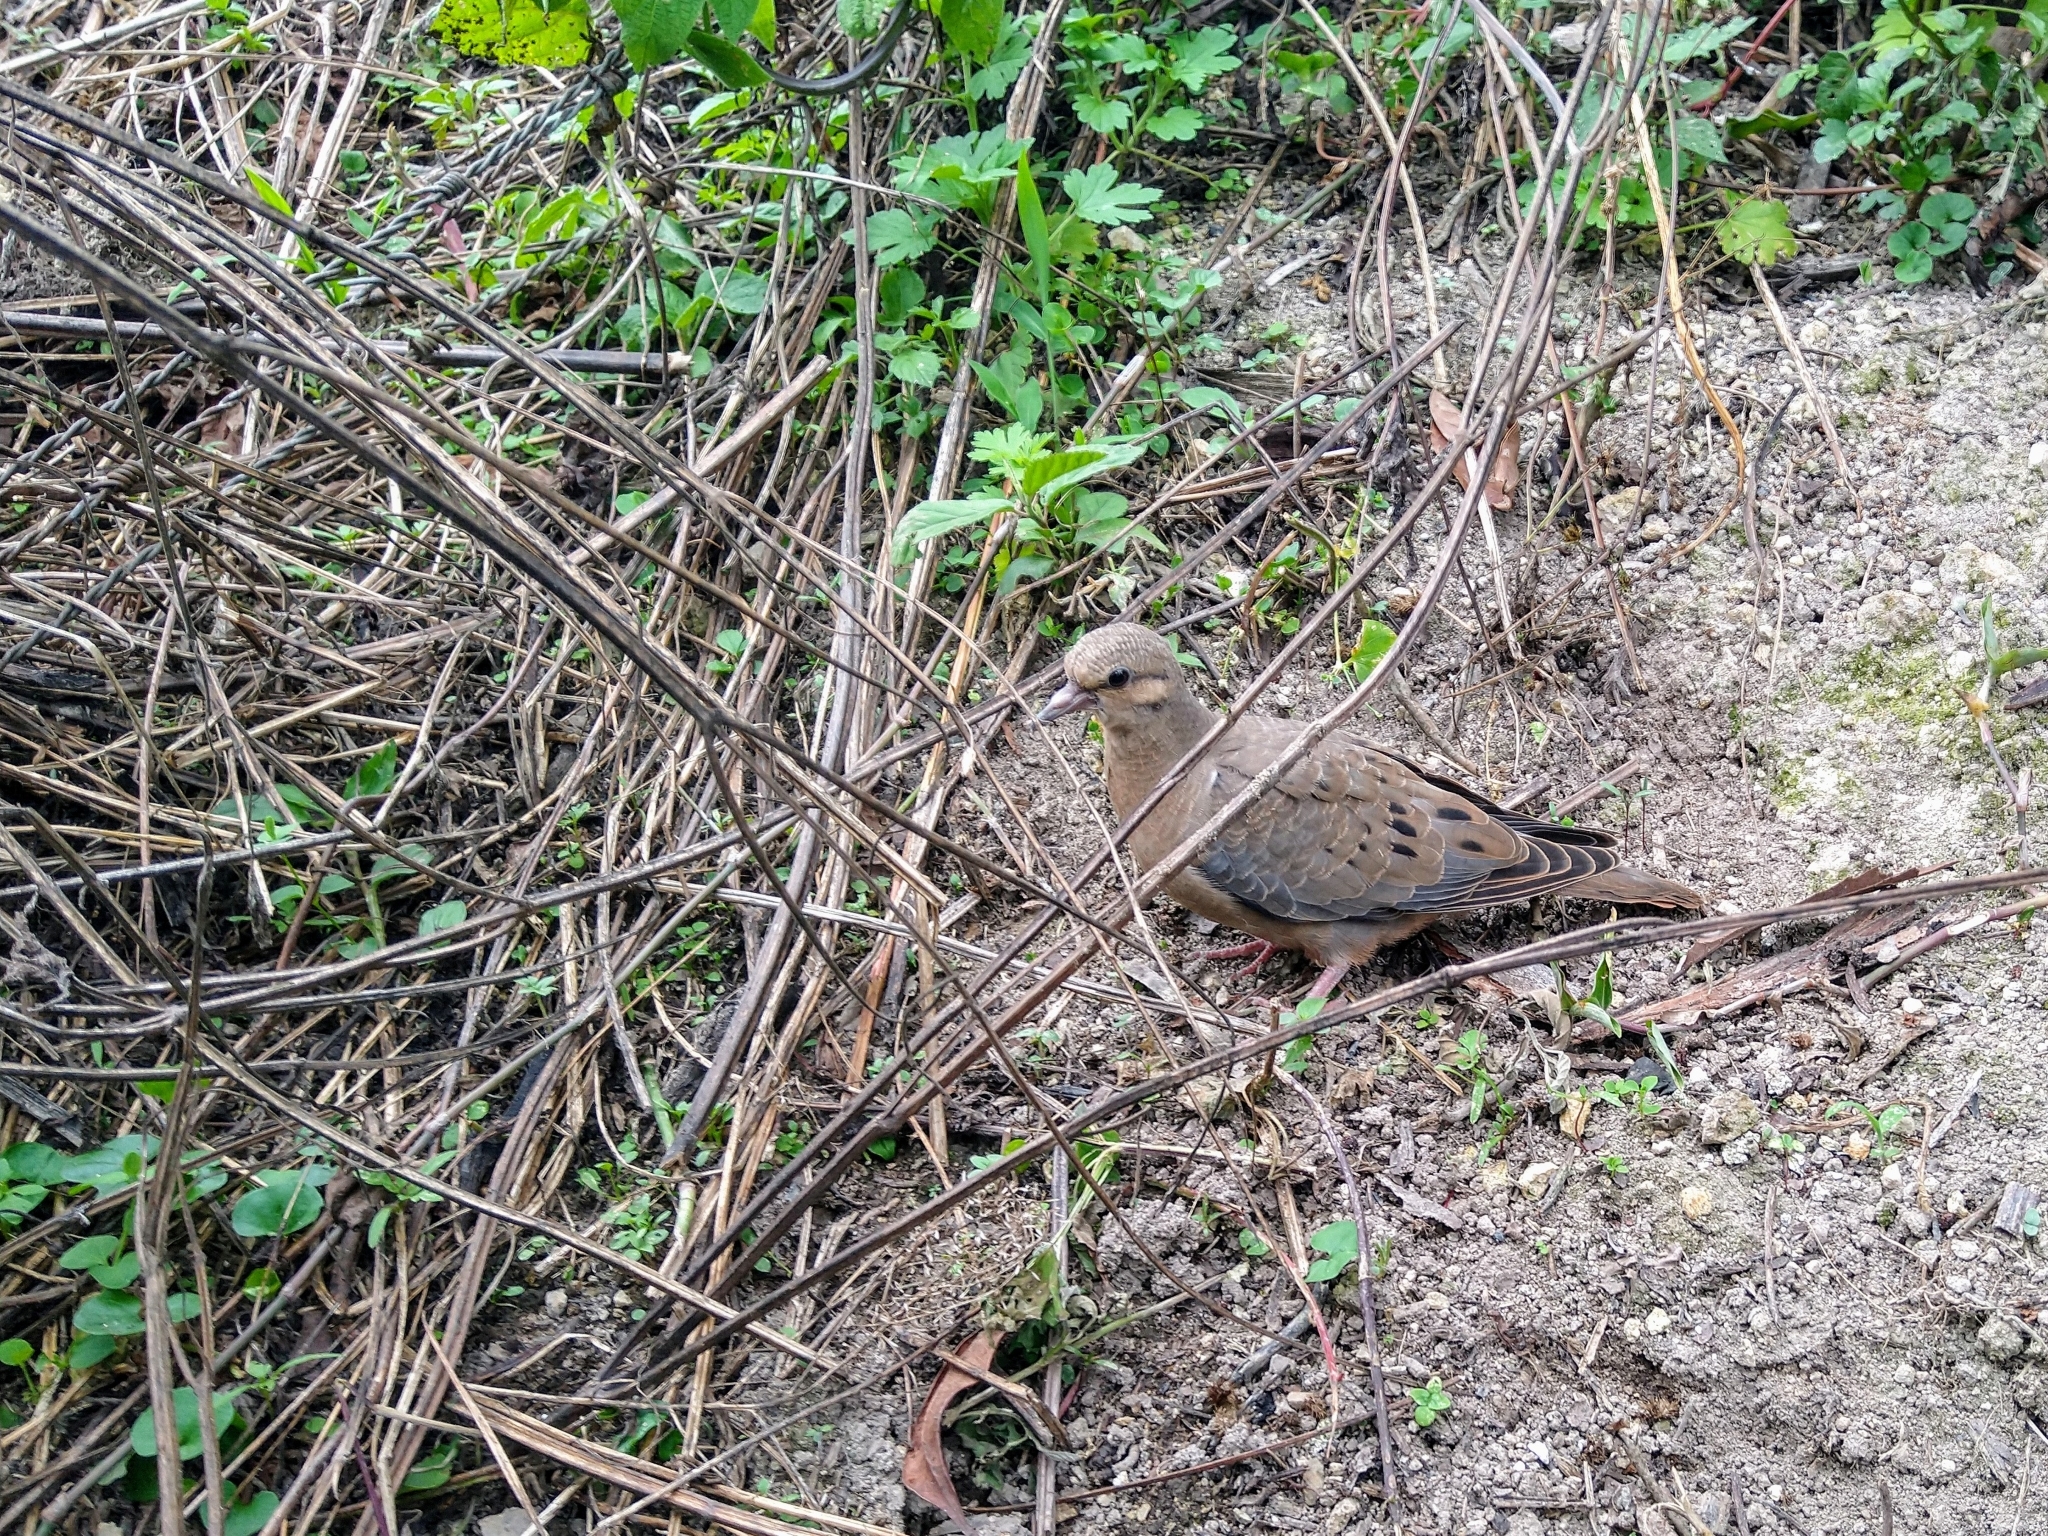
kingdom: Animalia
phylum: Chordata
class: Aves
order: Columbiformes
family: Columbidae
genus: Zenaida
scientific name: Zenaida auriculata
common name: Eared dove
